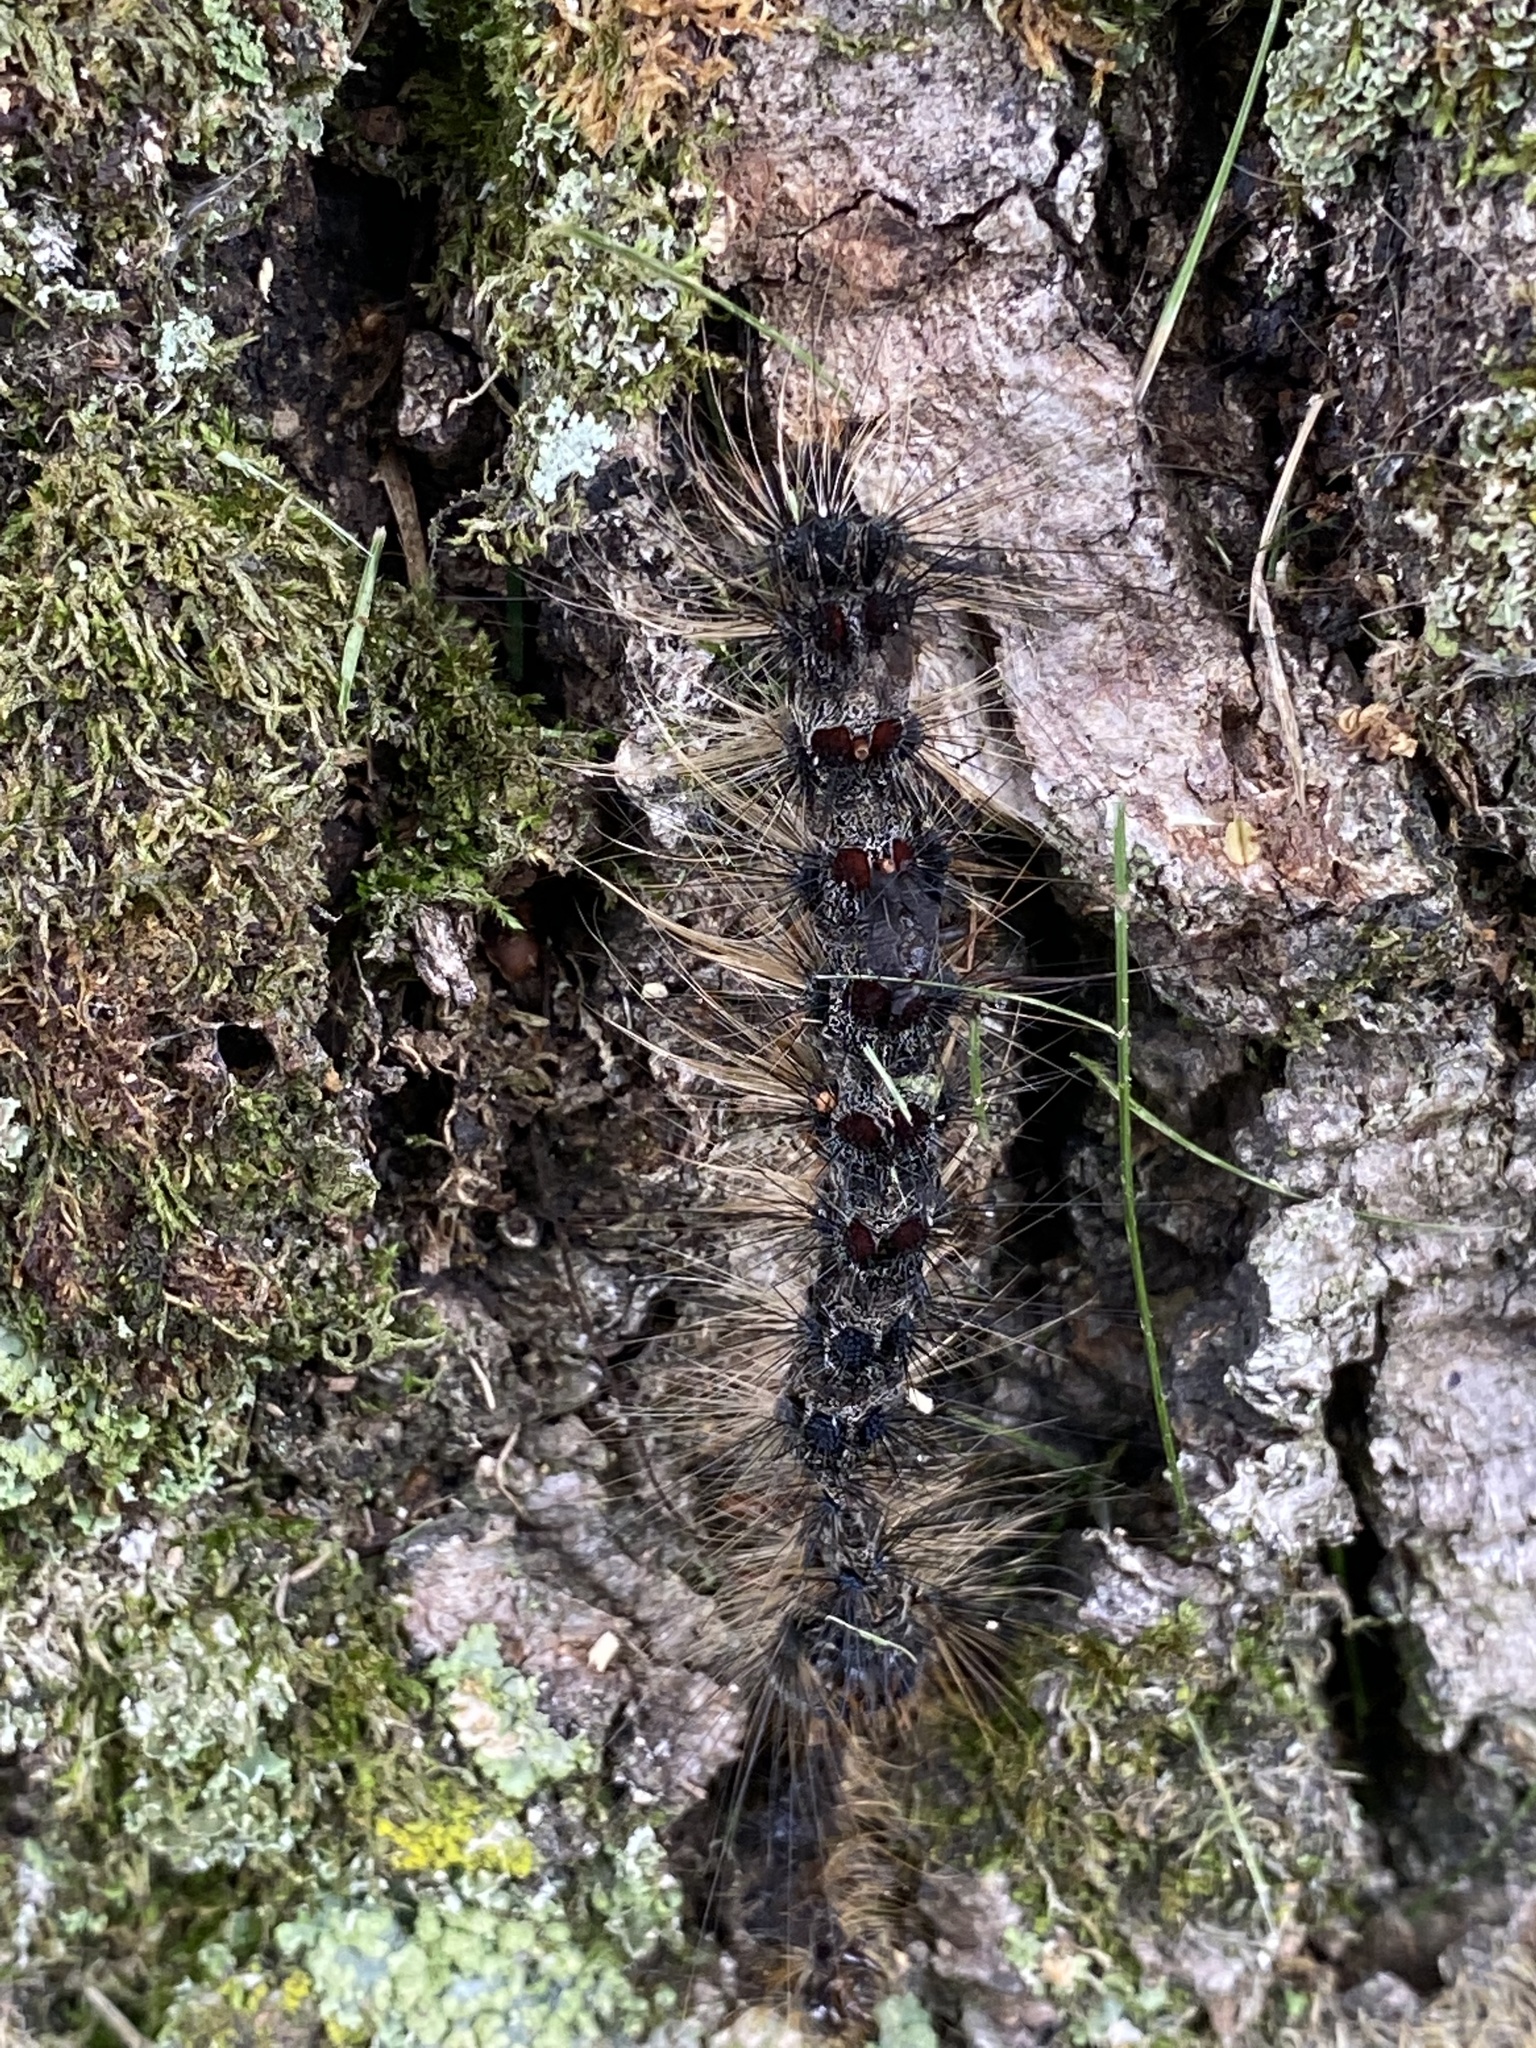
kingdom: Animalia
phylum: Arthropoda
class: Insecta
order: Lepidoptera
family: Erebidae
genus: Lymantria
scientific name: Lymantria dispar
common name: Gypsy moth
